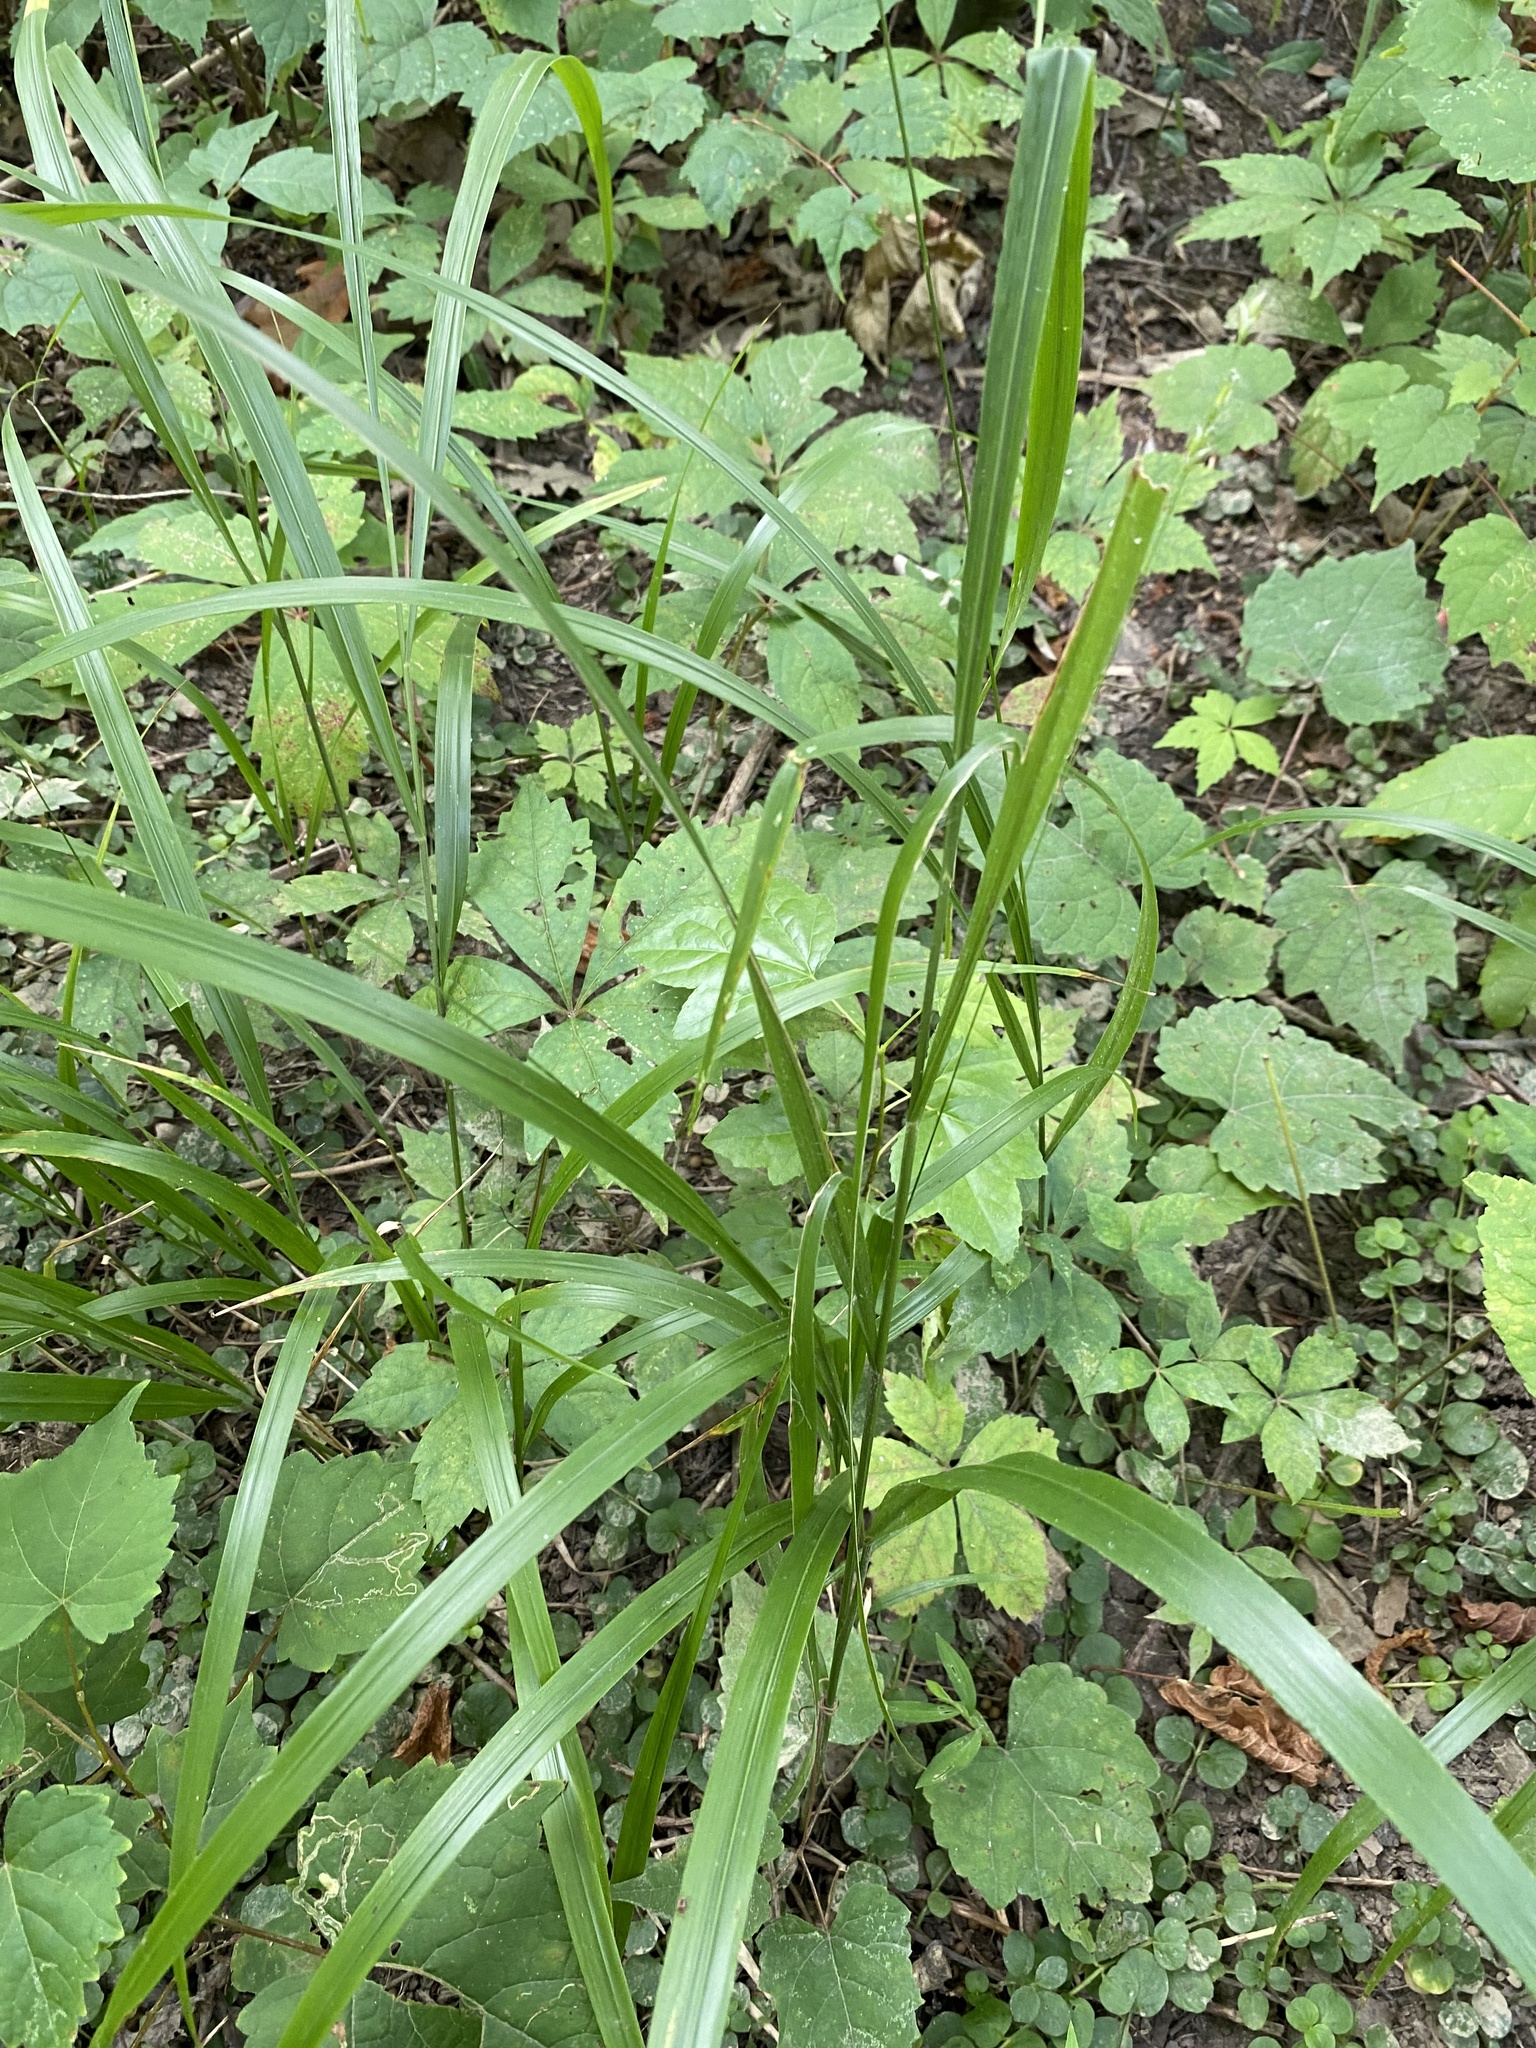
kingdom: Plantae
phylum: Tracheophyta
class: Liliopsida
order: Poales
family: Poaceae
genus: Diarrhena
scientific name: Diarrhena obovata
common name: Beakgrass
